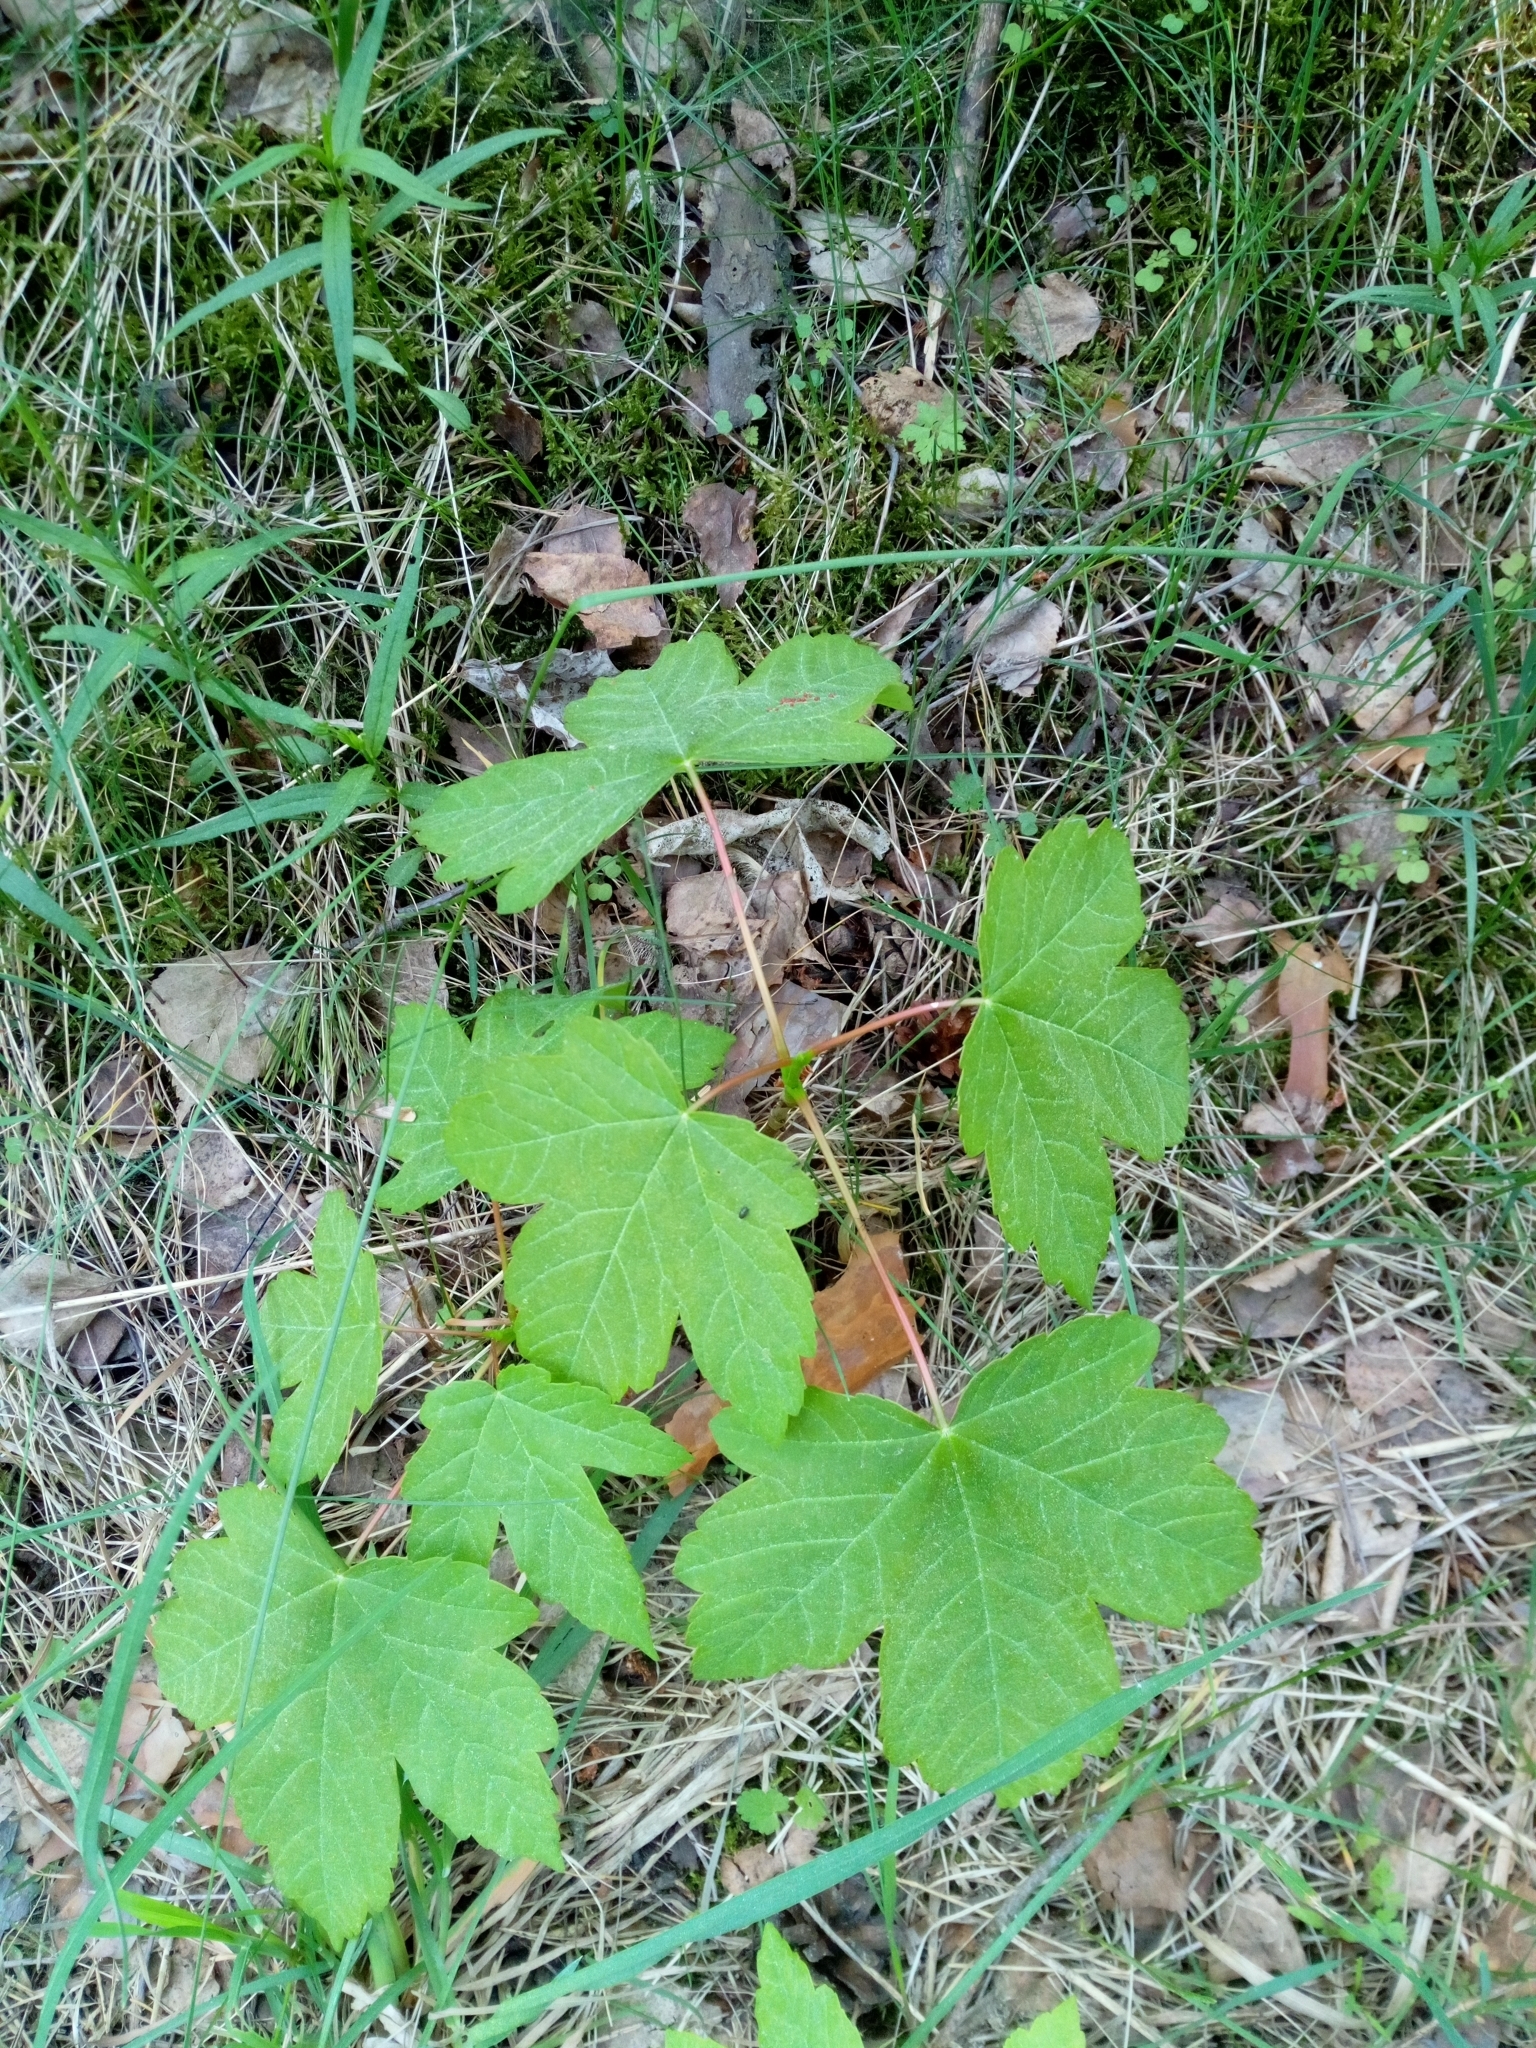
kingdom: Plantae
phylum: Tracheophyta
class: Magnoliopsida
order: Sapindales
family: Sapindaceae
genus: Acer
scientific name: Acer pseudoplatanus
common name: Sycamore
